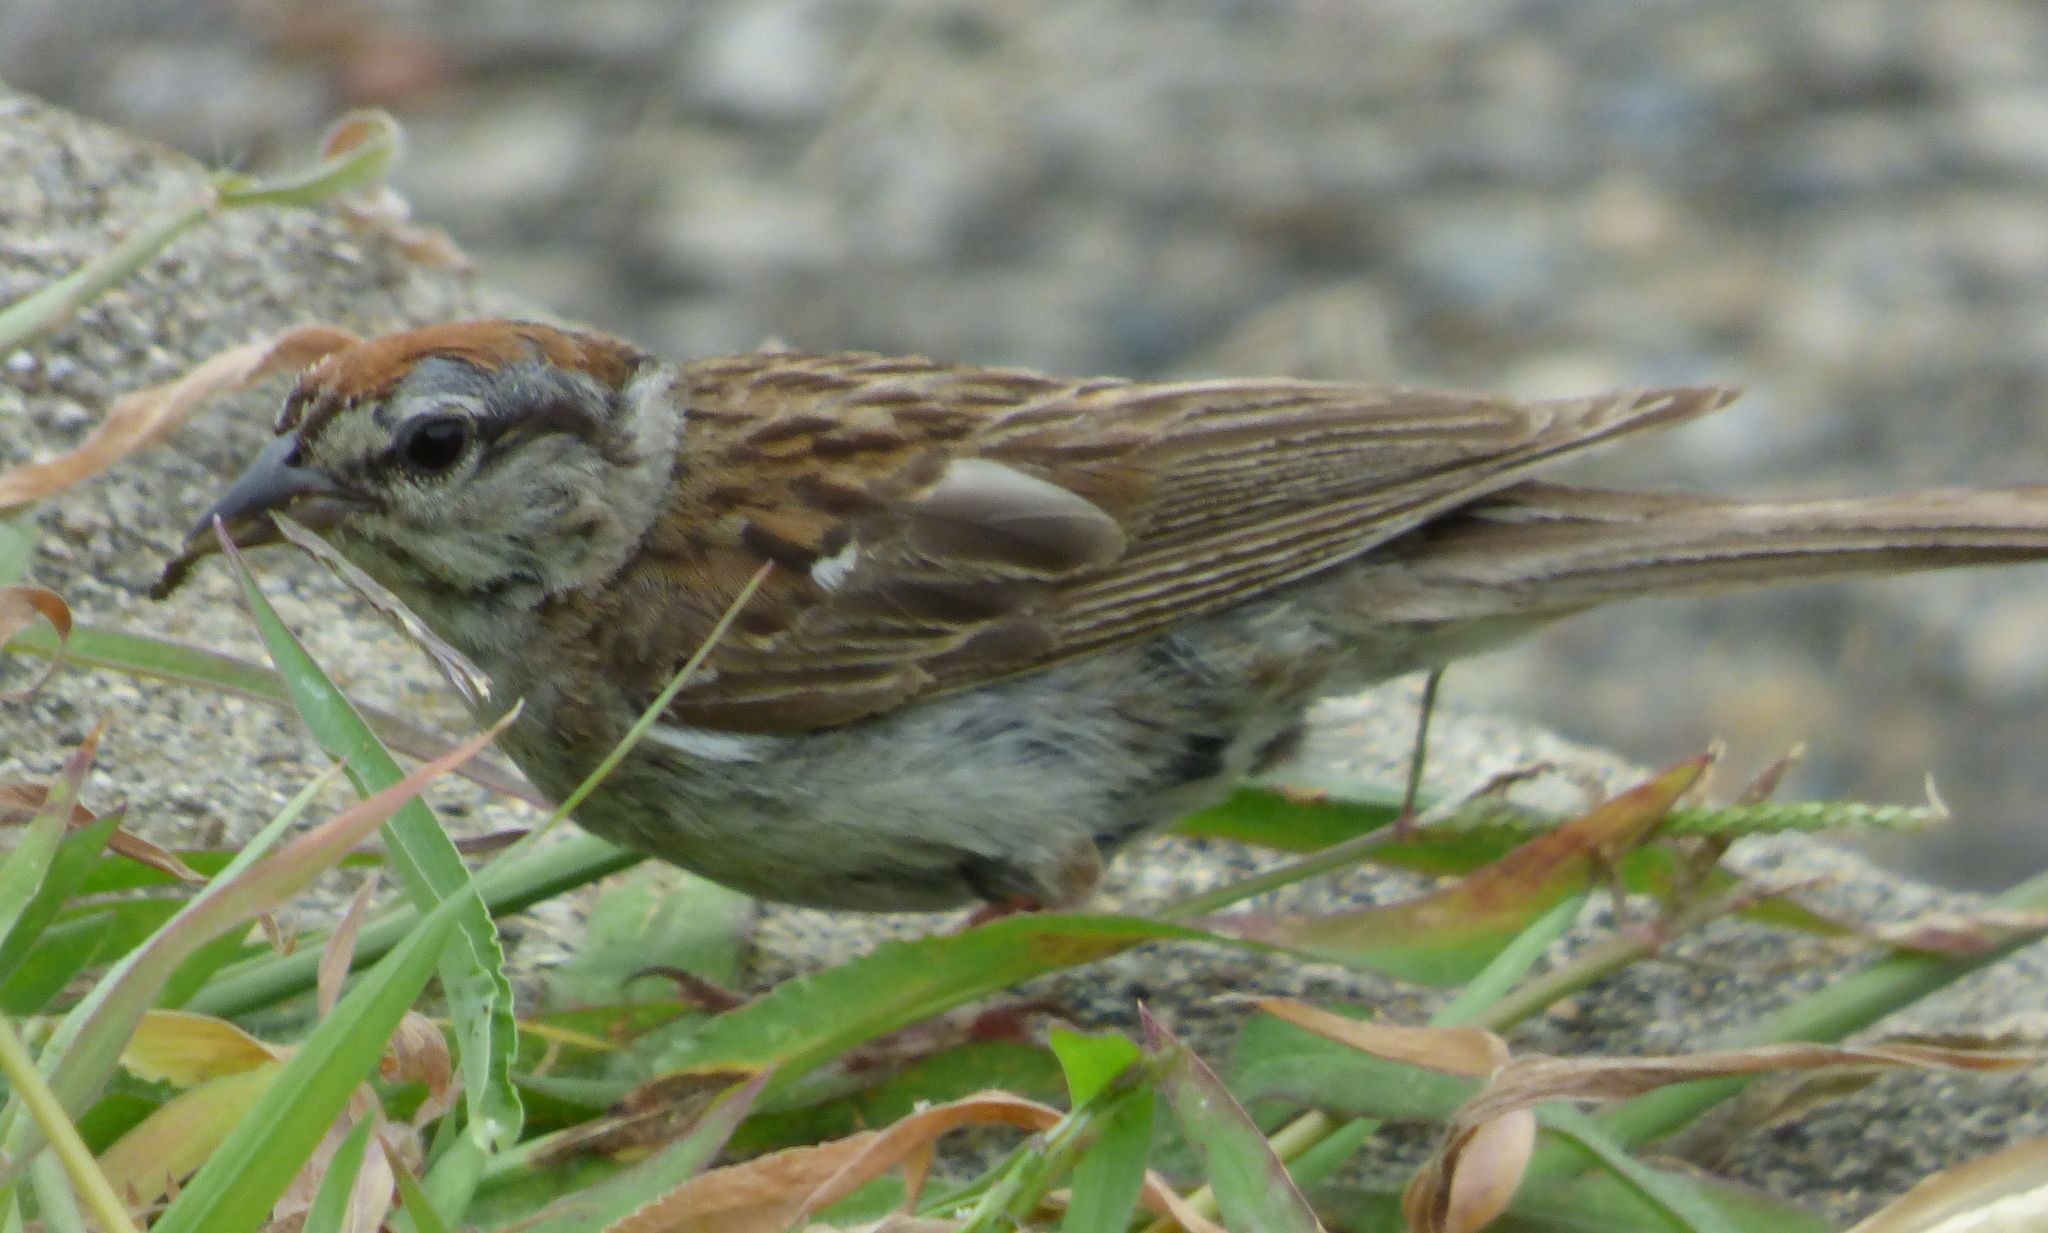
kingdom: Animalia
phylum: Chordata
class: Aves
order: Passeriformes
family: Passerellidae
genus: Spizella
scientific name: Spizella passerina
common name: Chipping sparrow
